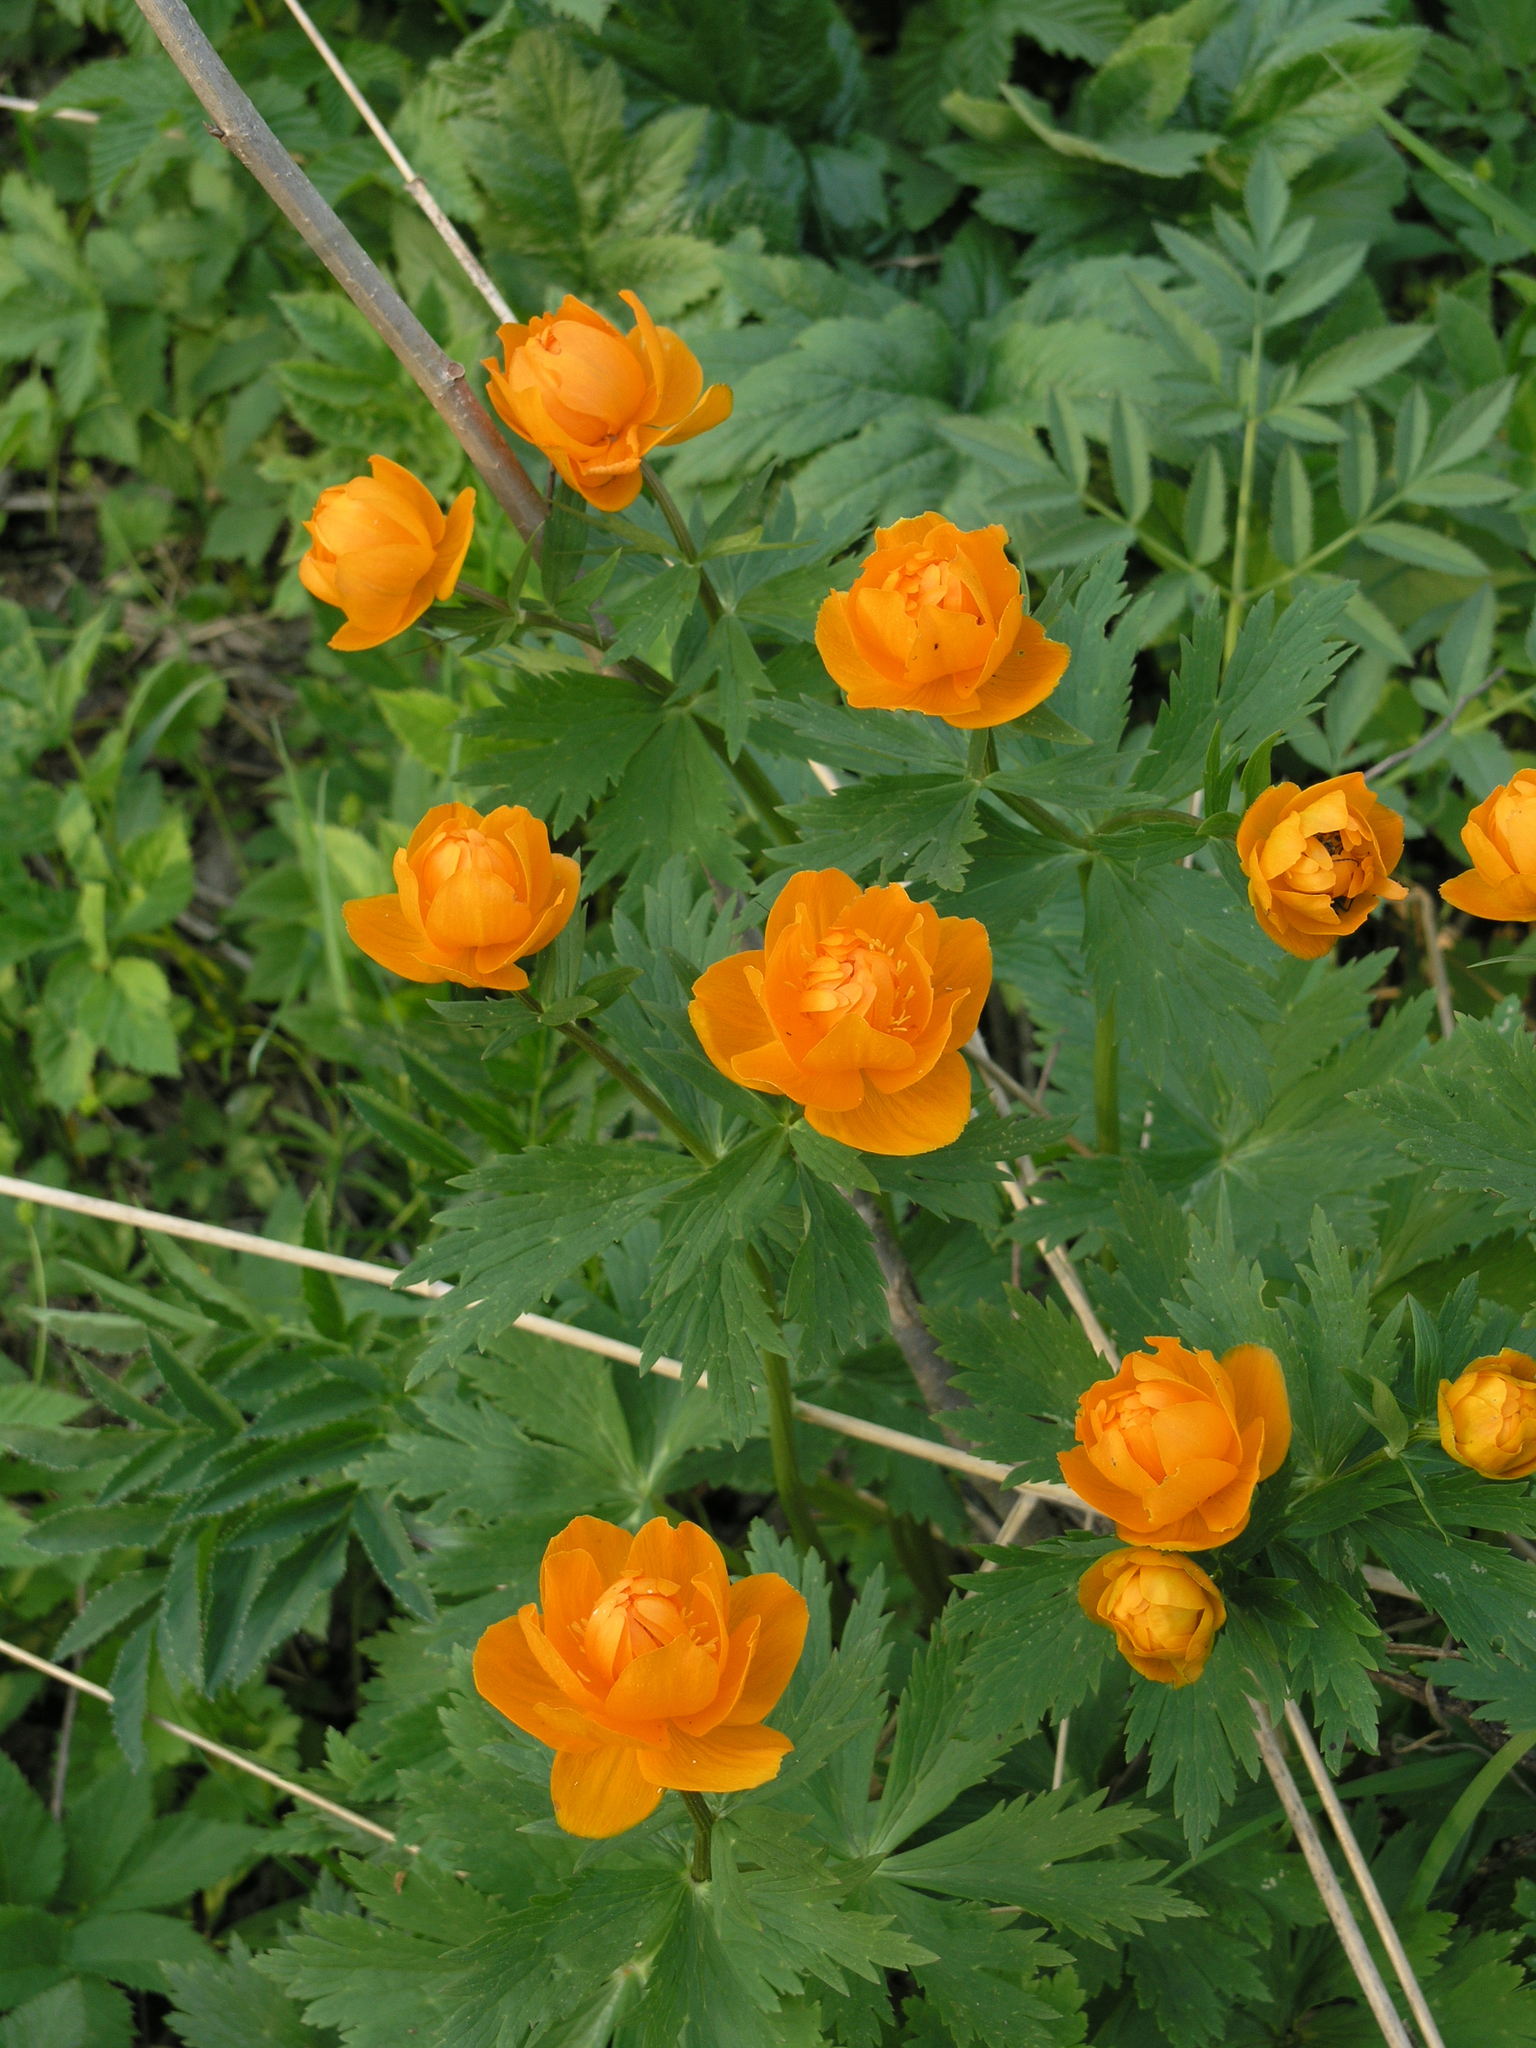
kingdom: Plantae
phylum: Tracheophyta
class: Magnoliopsida
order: Ranunculales
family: Ranunculaceae
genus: Trollius
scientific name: Trollius asiaticus
